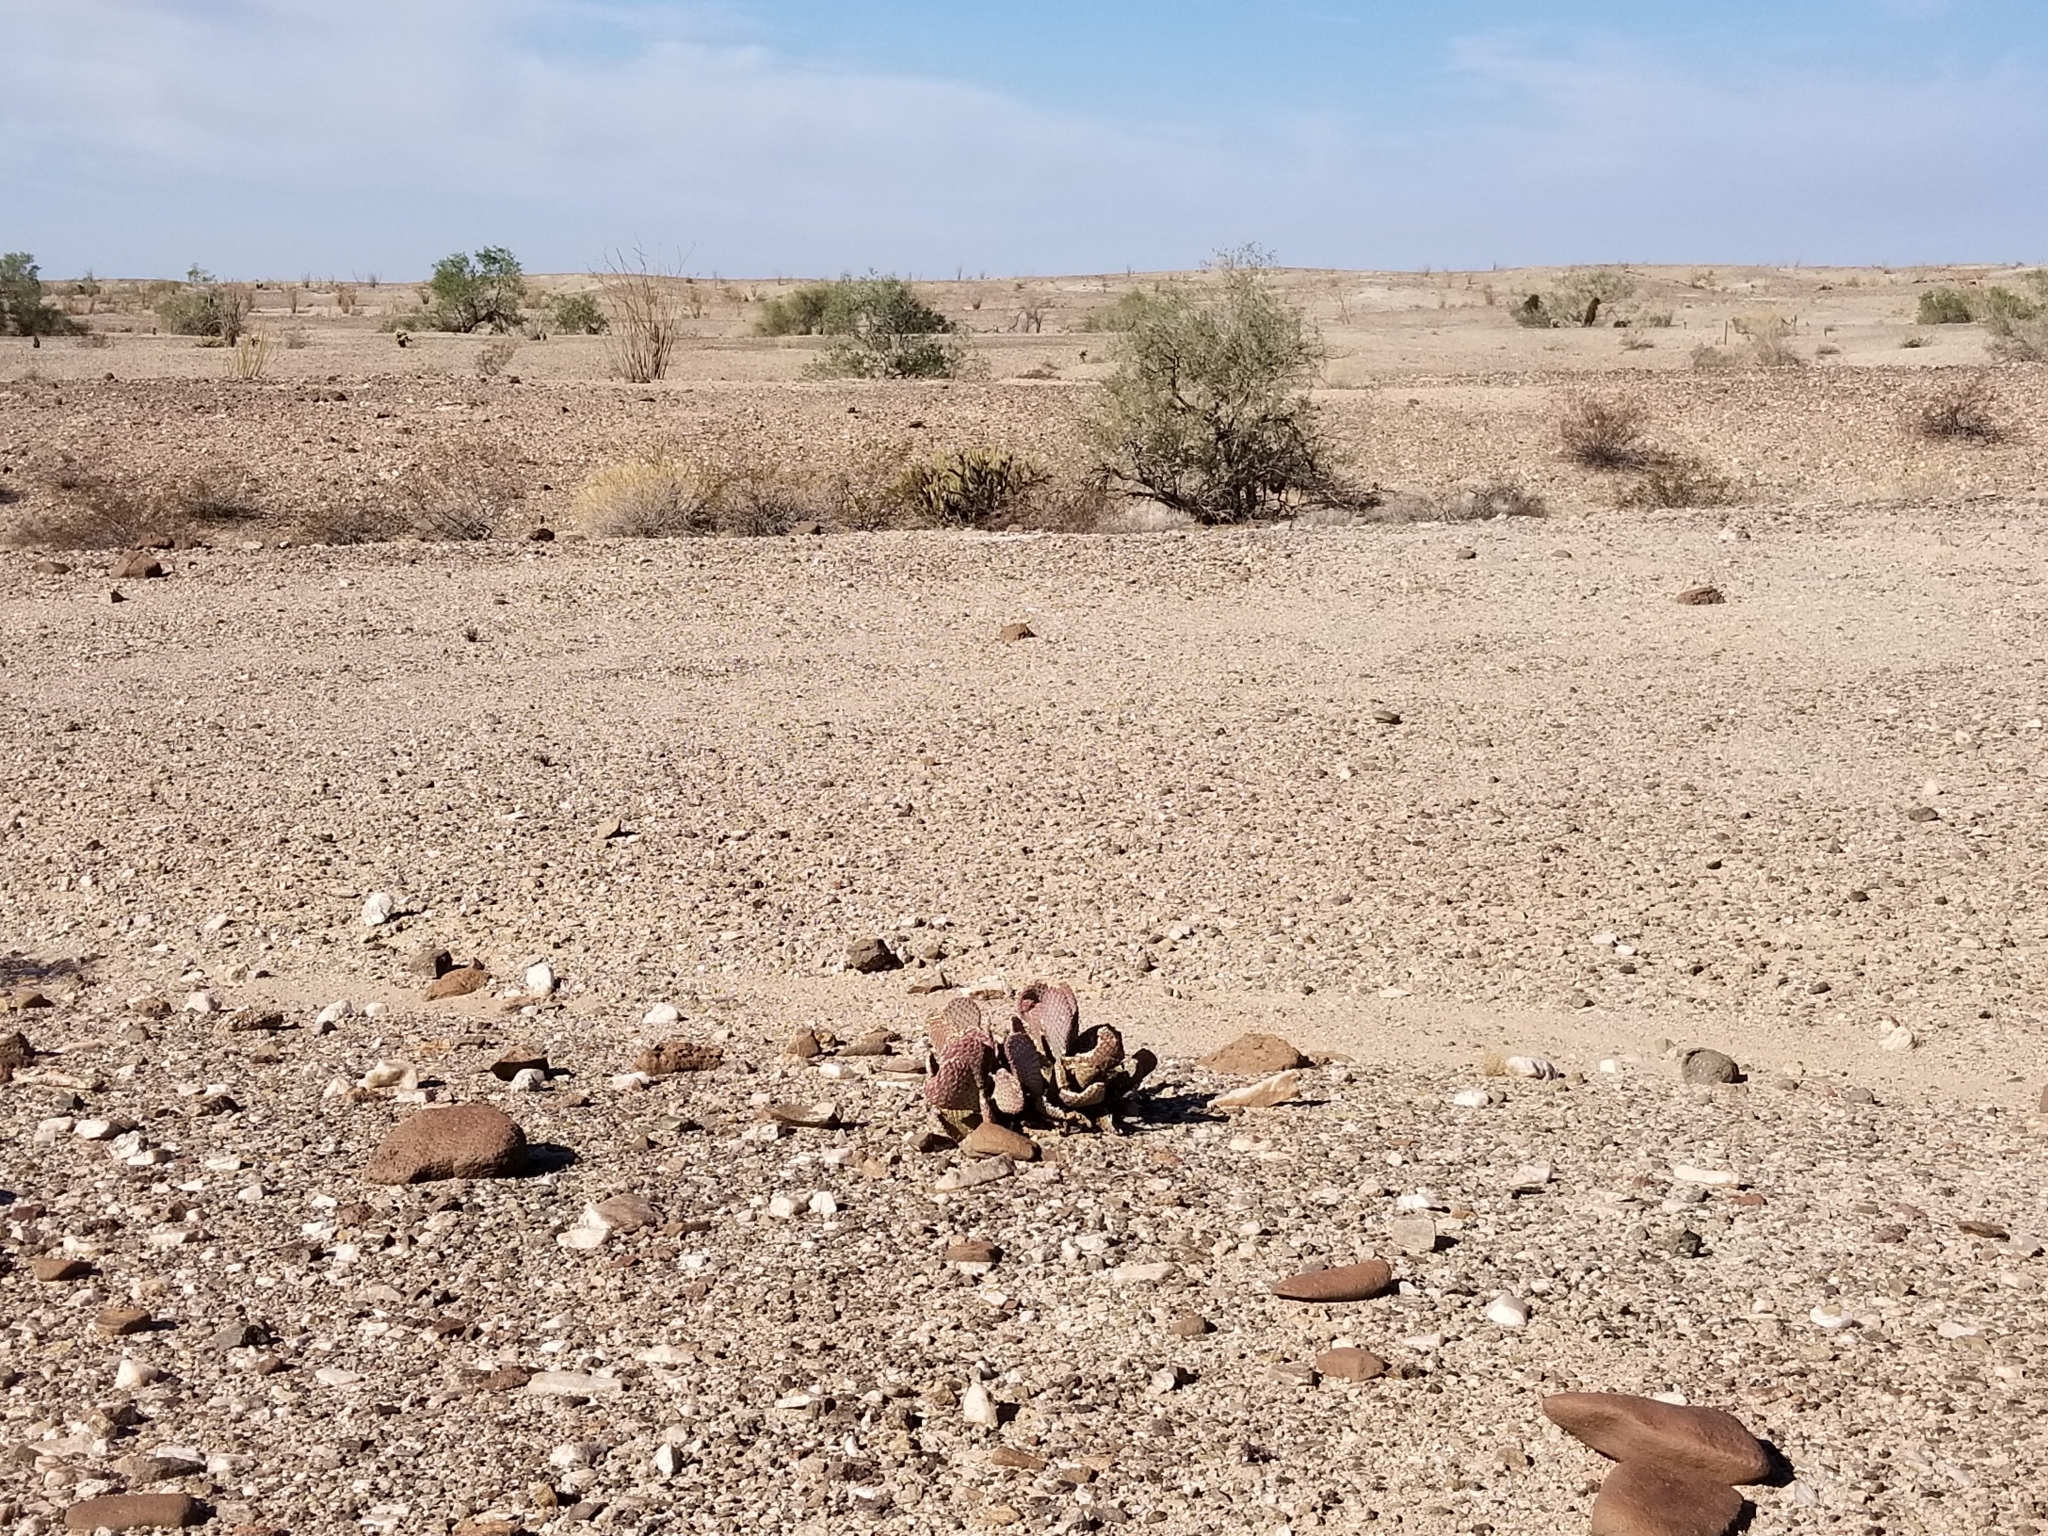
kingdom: Plantae
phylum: Tracheophyta
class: Magnoliopsida
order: Caryophyllales
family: Cactaceae
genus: Opuntia
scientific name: Opuntia basilaris
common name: Beavertail prickly-pear
